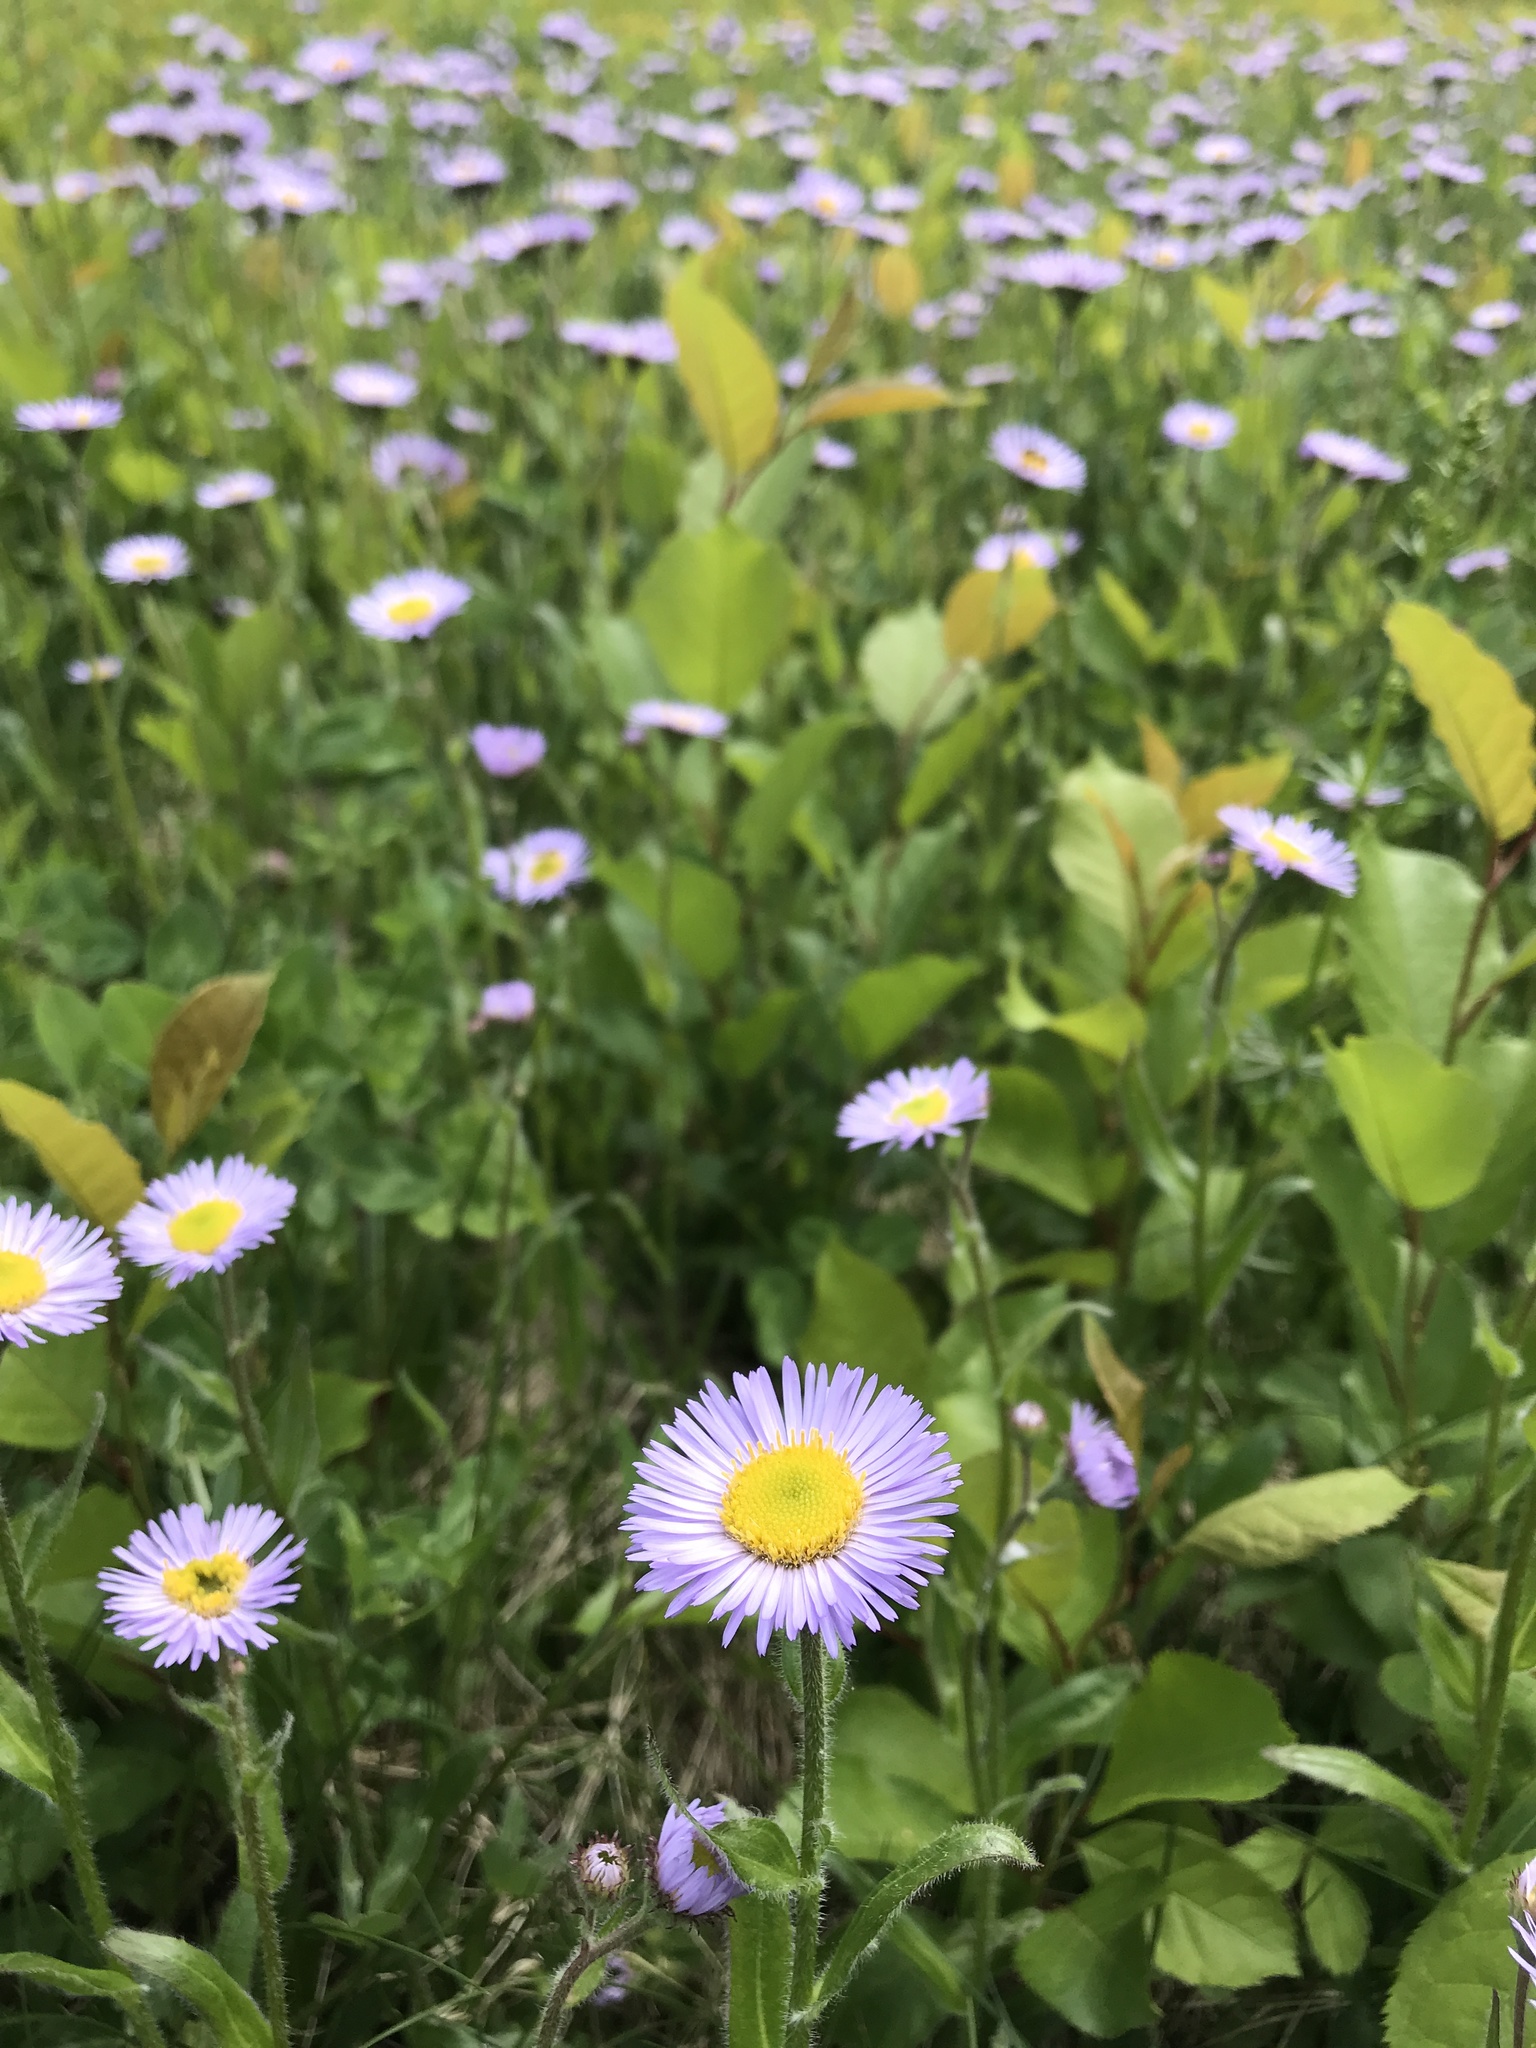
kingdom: Plantae
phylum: Tracheophyta
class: Magnoliopsida
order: Asterales
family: Asteraceae
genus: Erigeron
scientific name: Erigeron pulchellus
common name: Hairy fleabane
